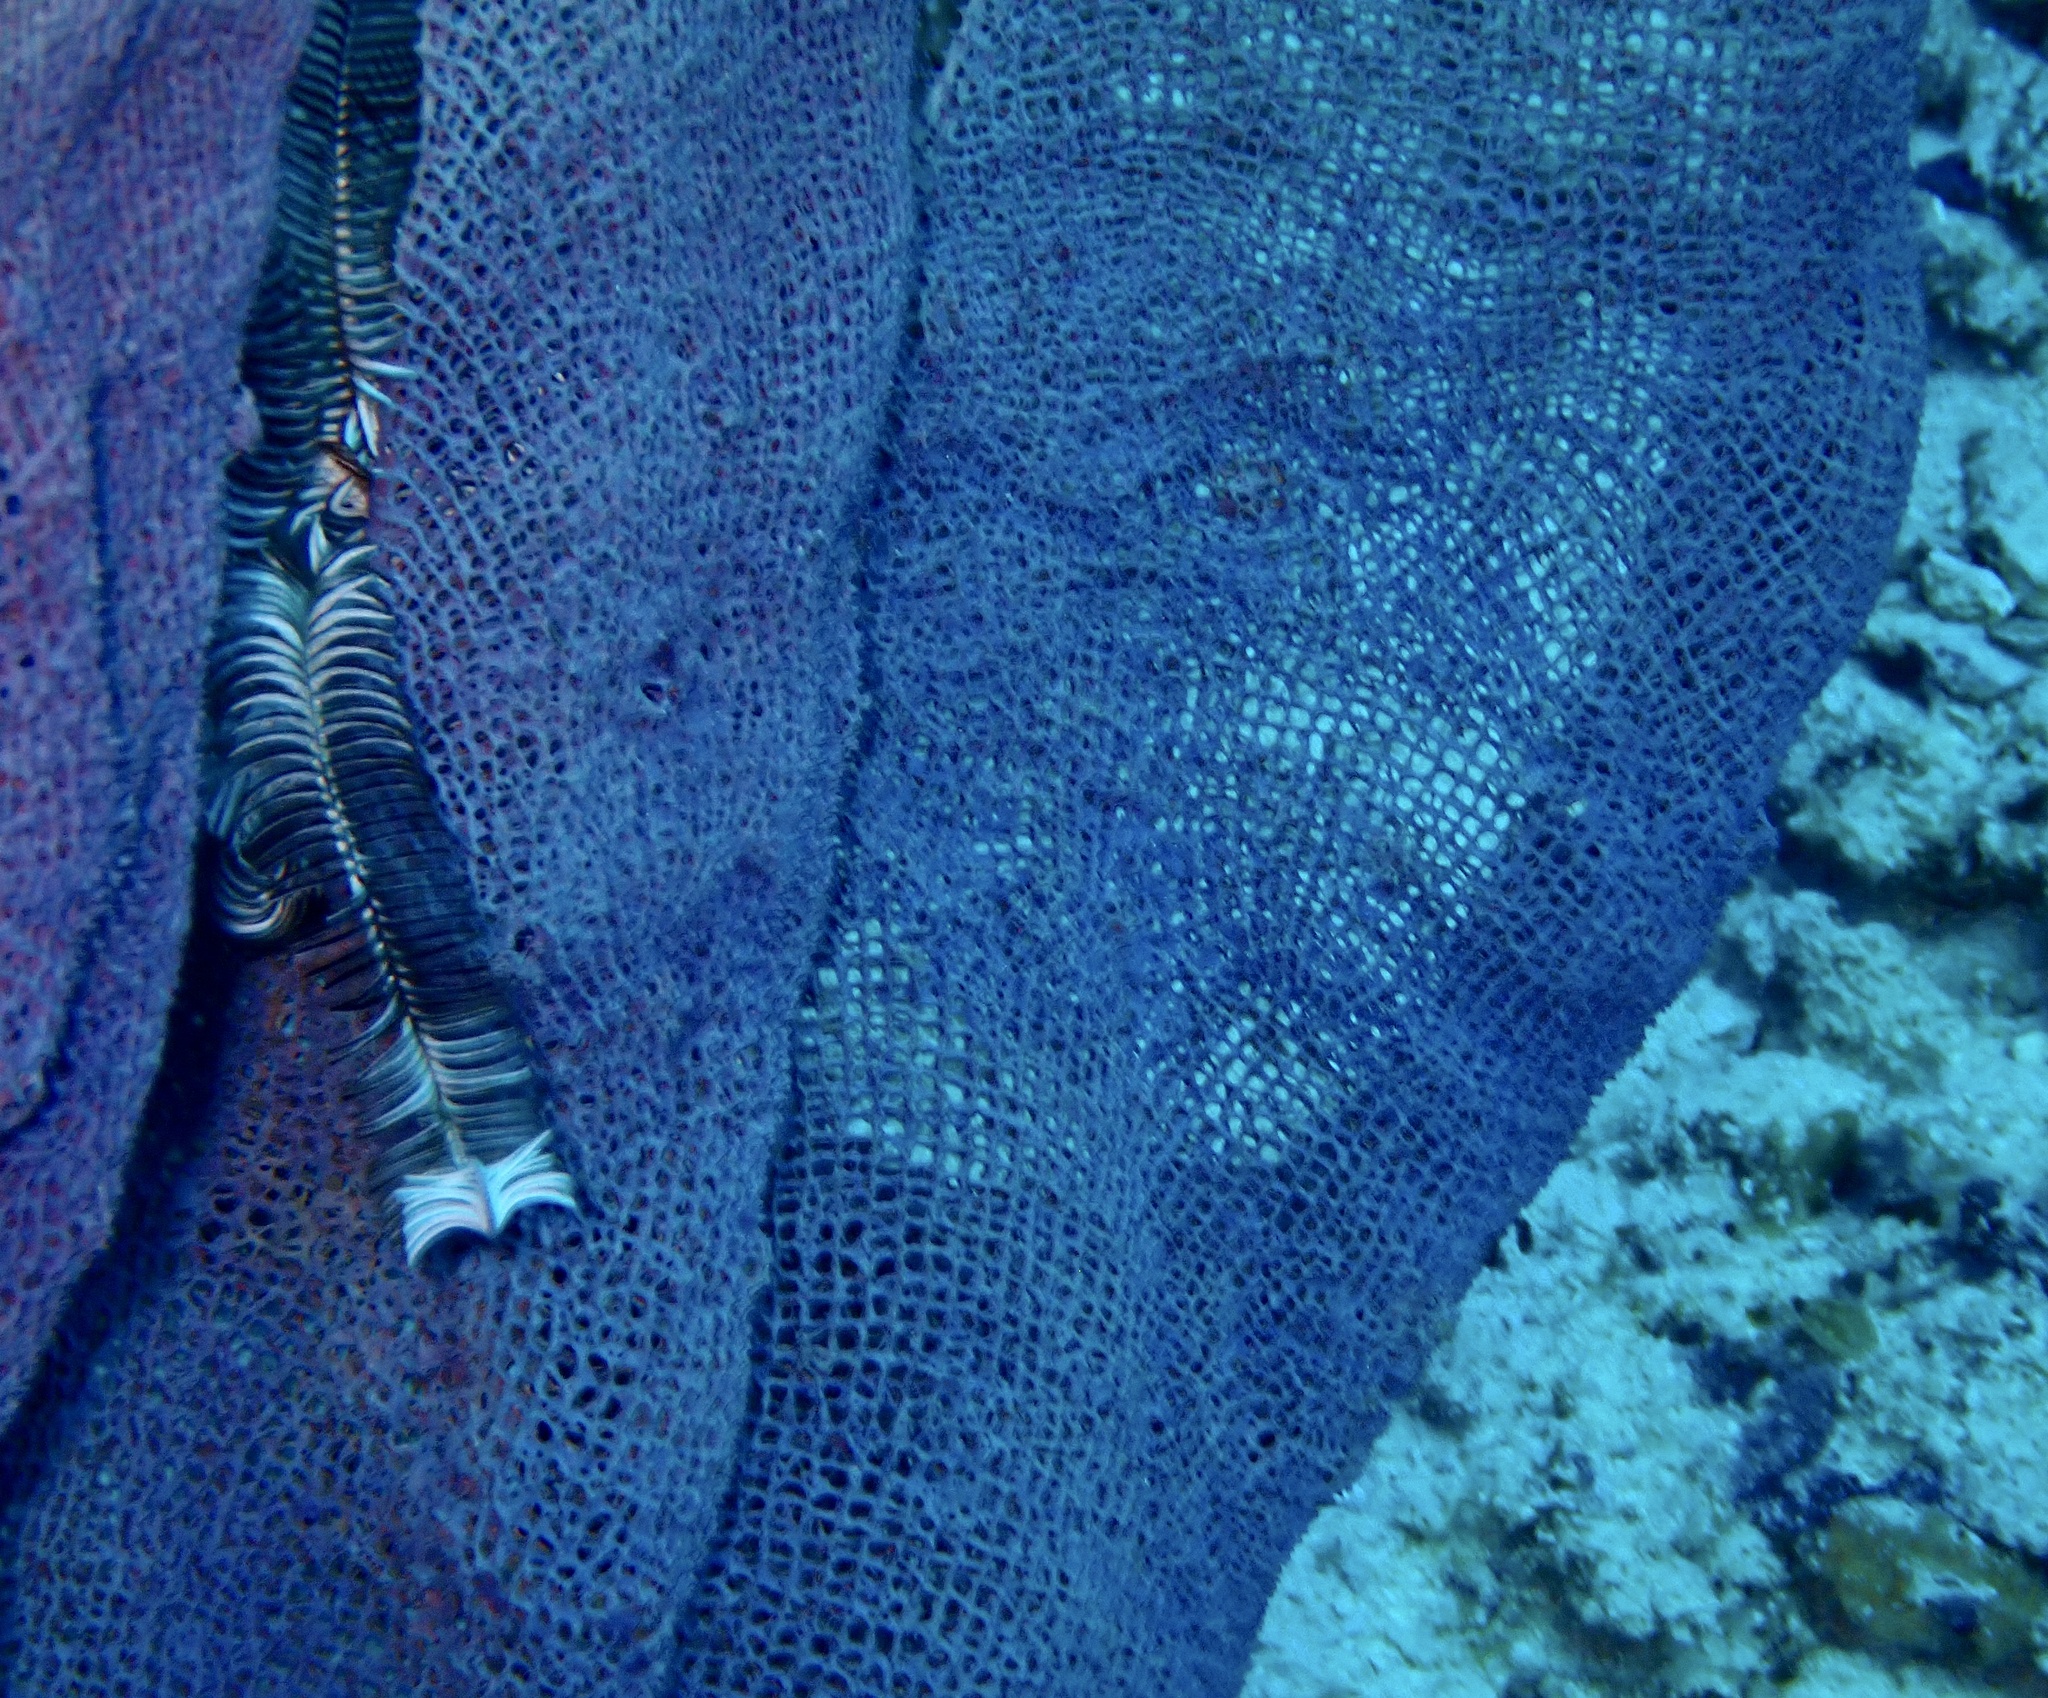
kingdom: Animalia
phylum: Porifera
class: Demospongiae
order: Verongiida
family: Ianthellidae
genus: Ianthella
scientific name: Ianthella basta
